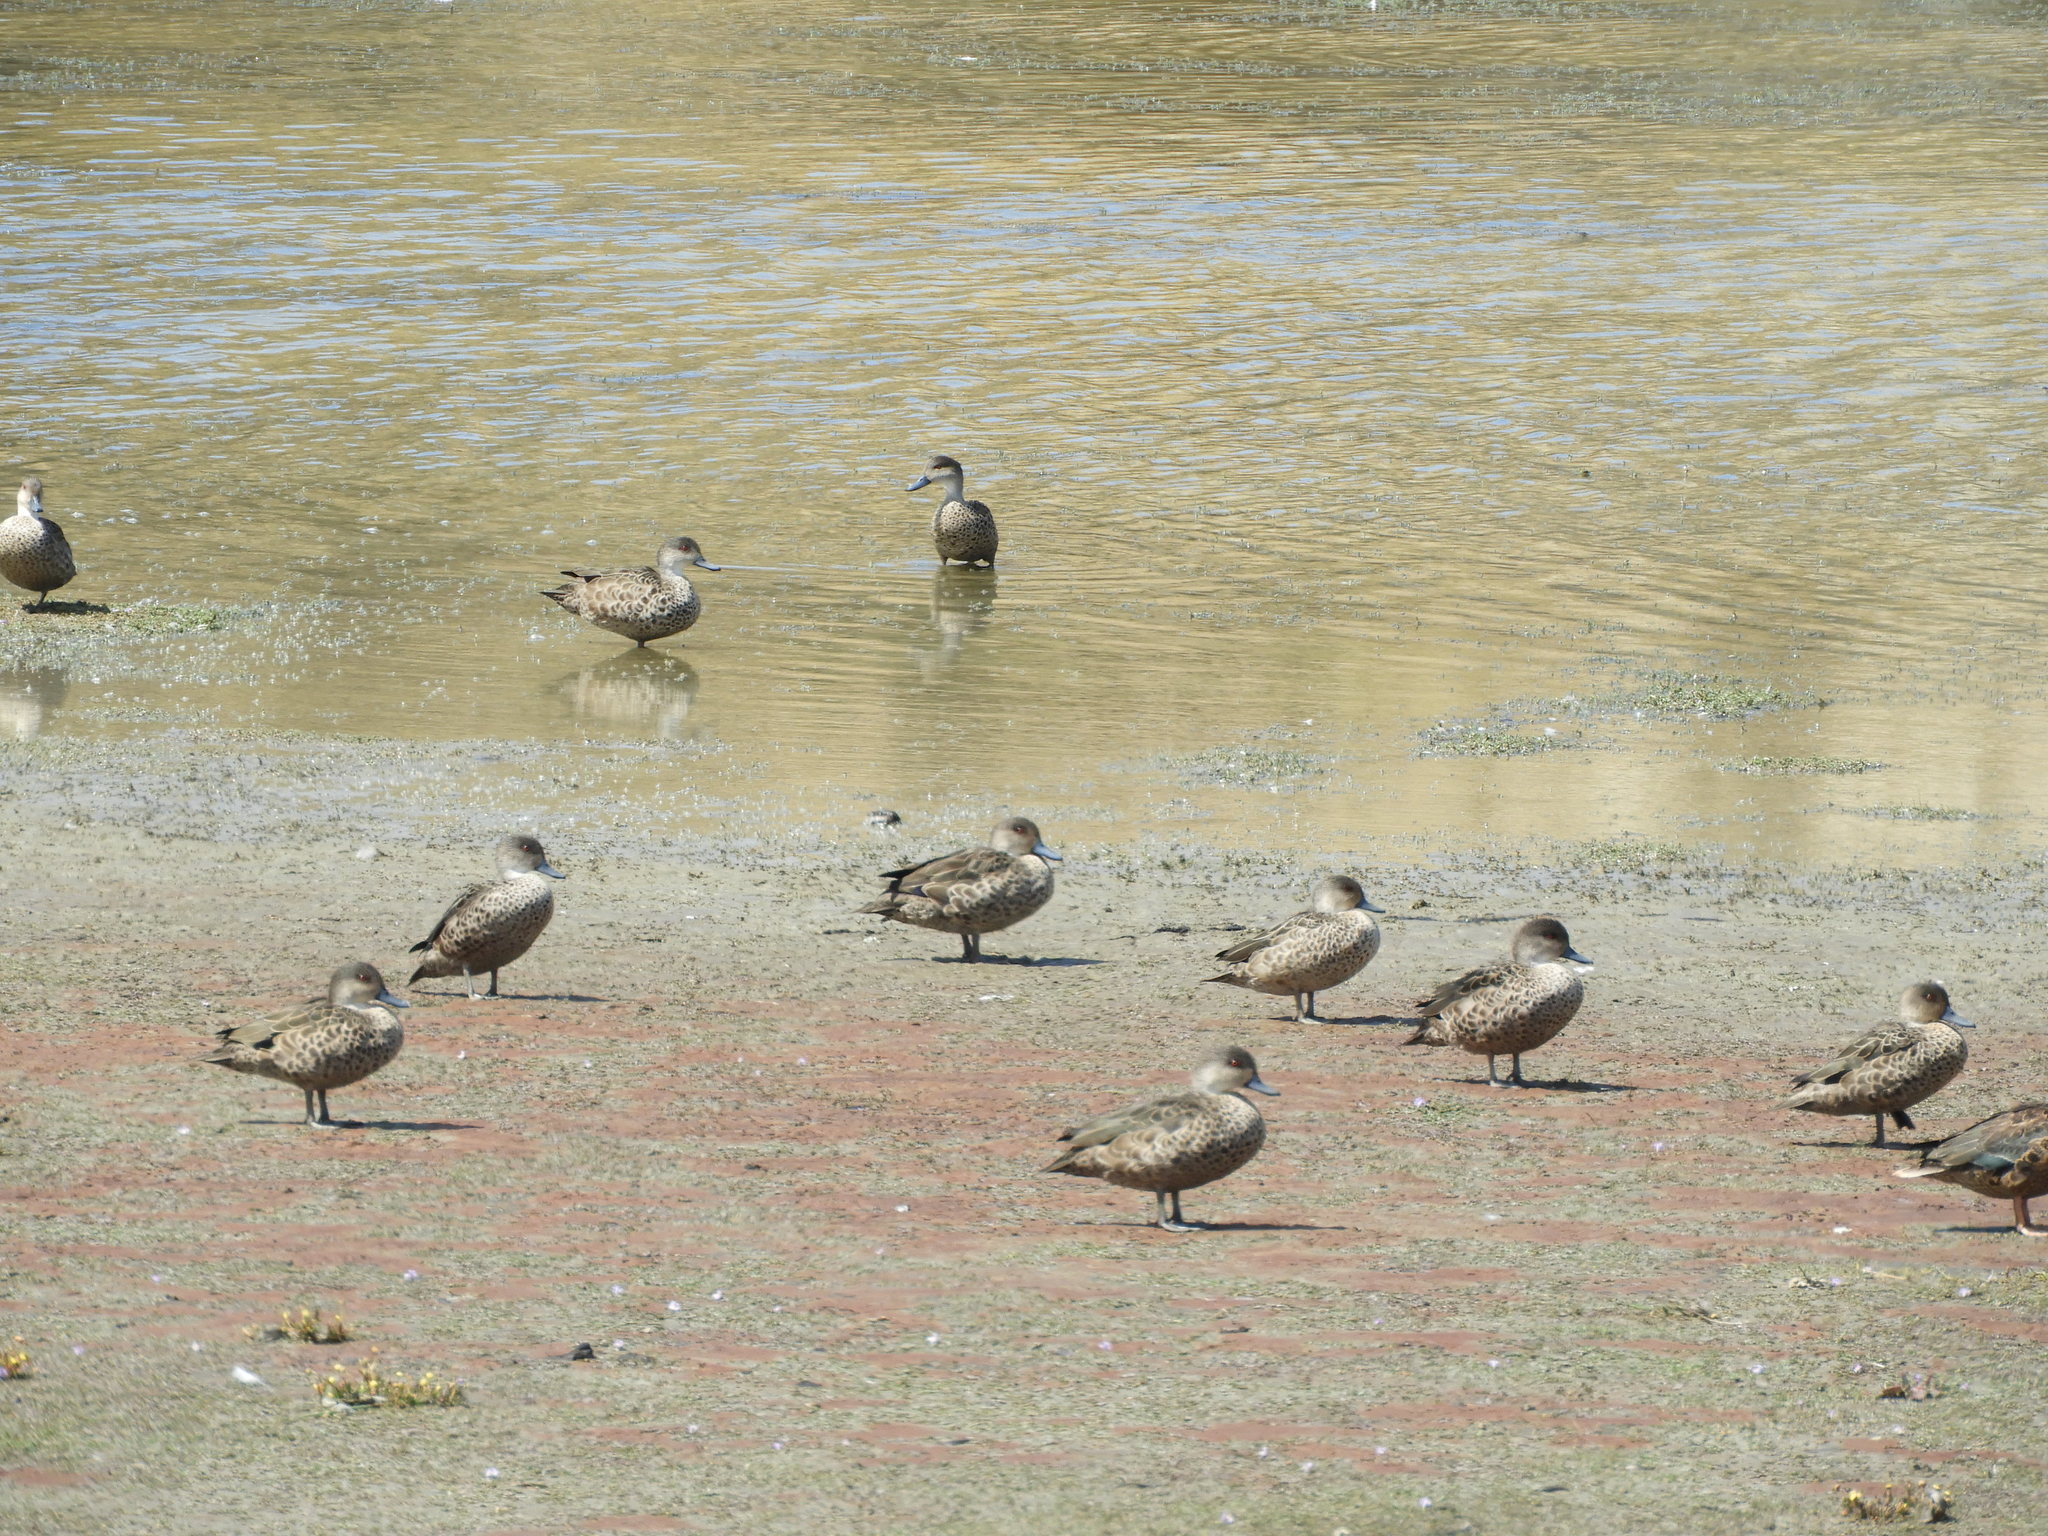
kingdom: Animalia
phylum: Chordata
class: Aves
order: Anseriformes
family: Anatidae
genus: Anas
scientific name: Anas gracilis
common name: Grey teal
